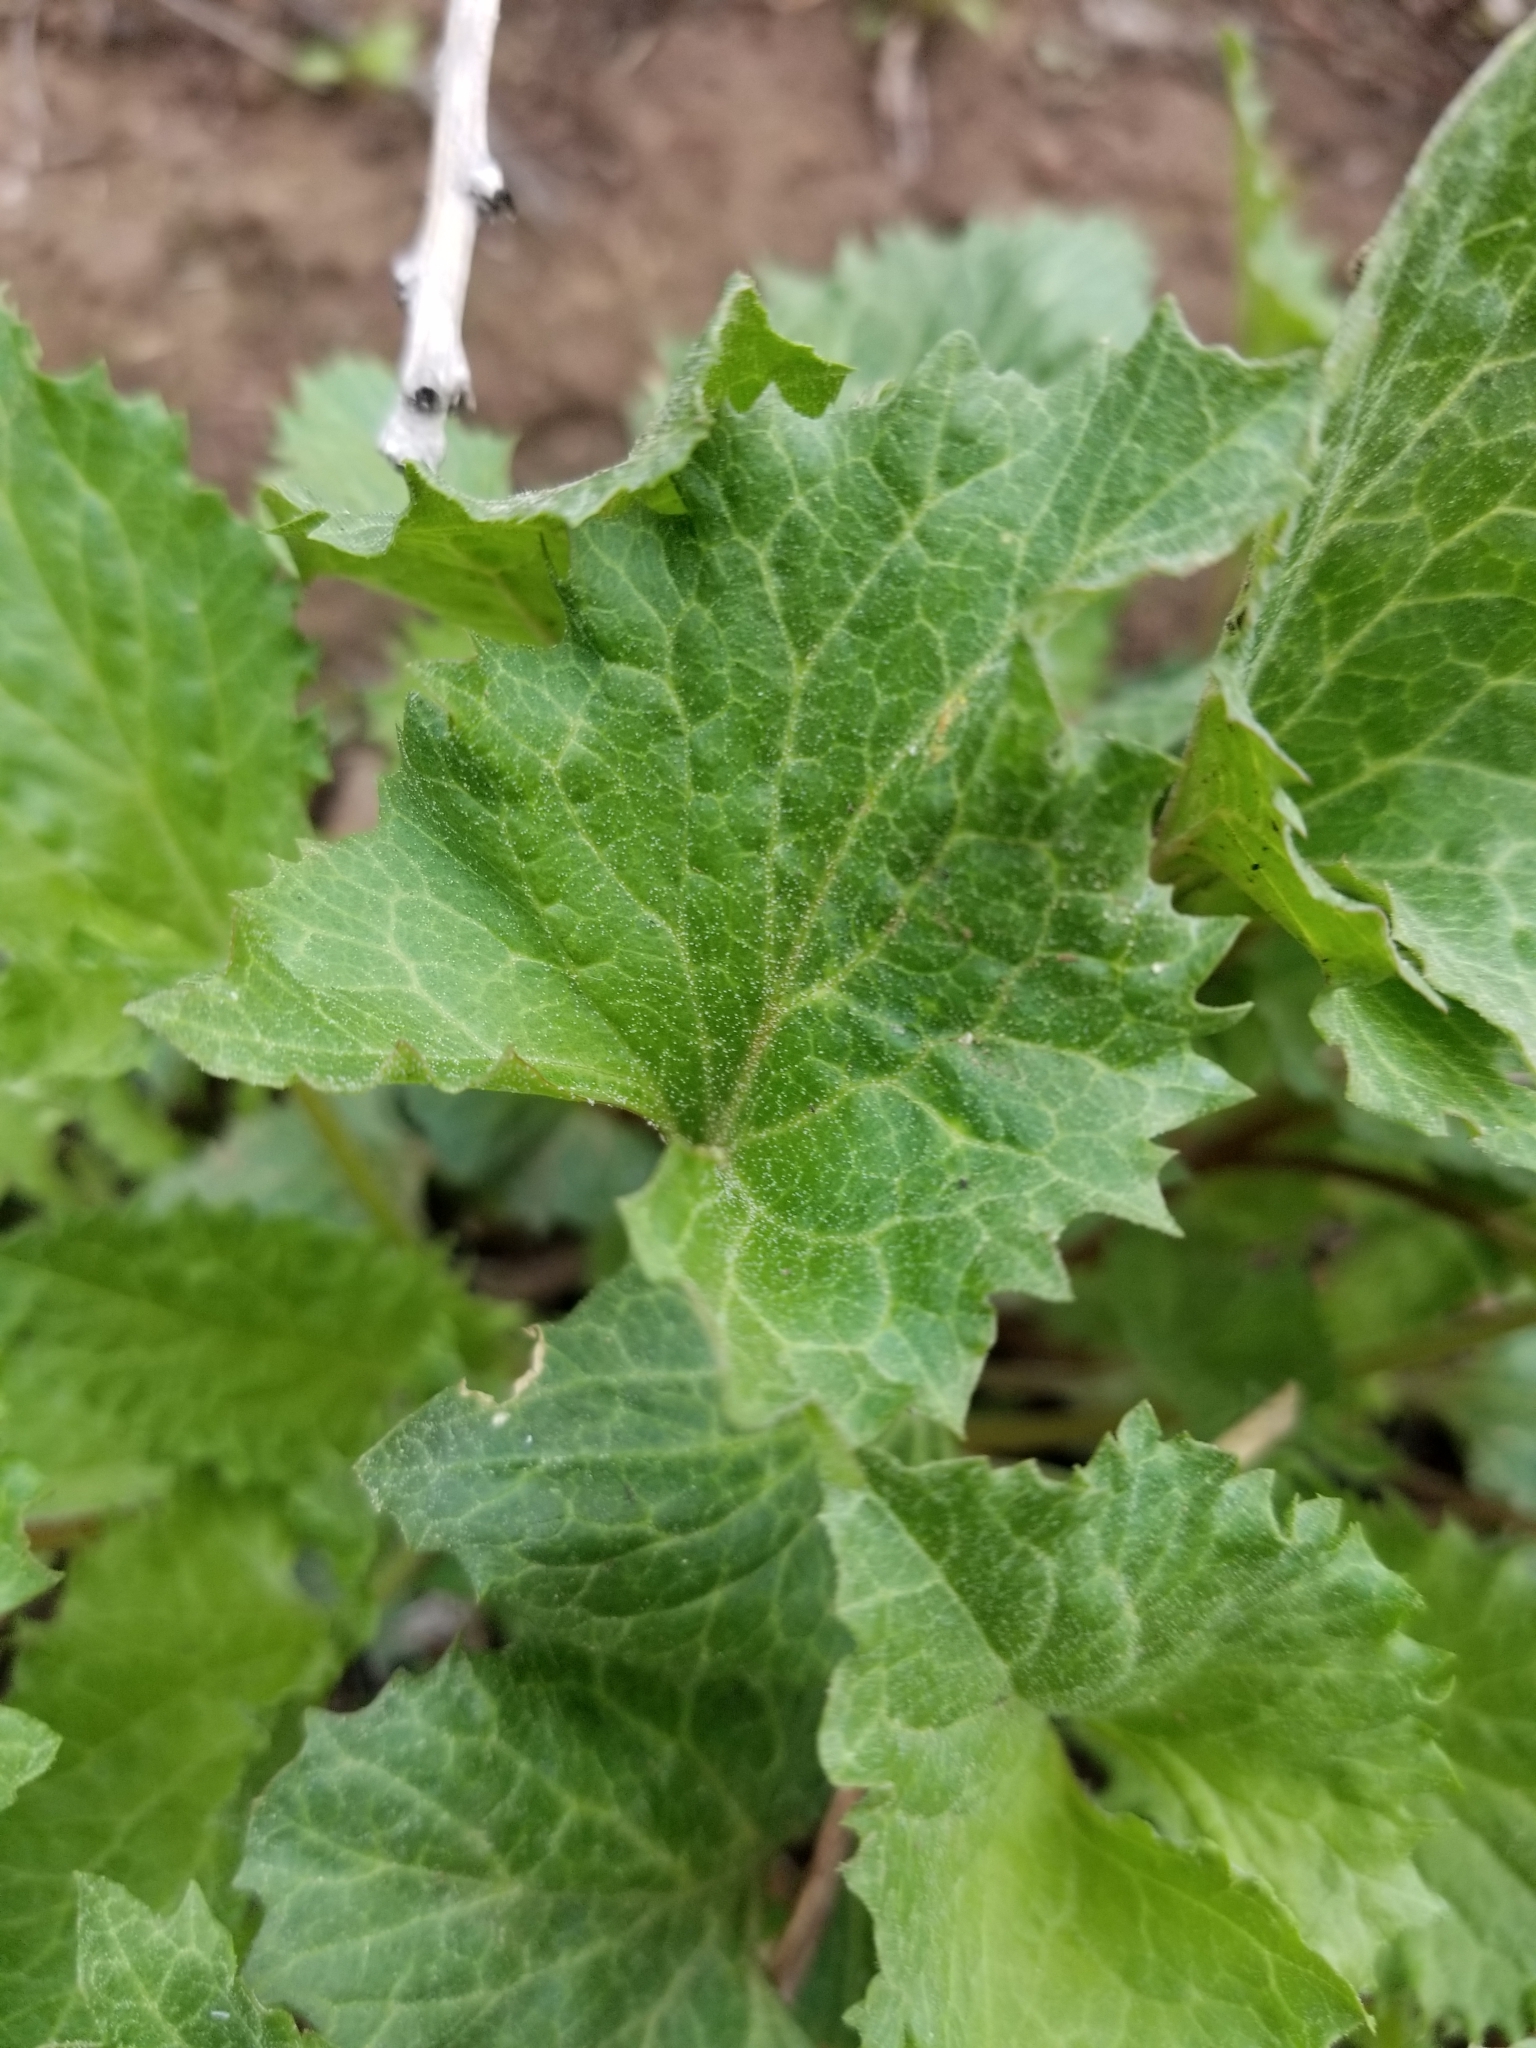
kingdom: Plantae
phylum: Tracheophyta
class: Magnoliopsida
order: Caryophyllales
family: Amaranthaceae
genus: Blitum
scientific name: Blitum californicum
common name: California goosefoot
